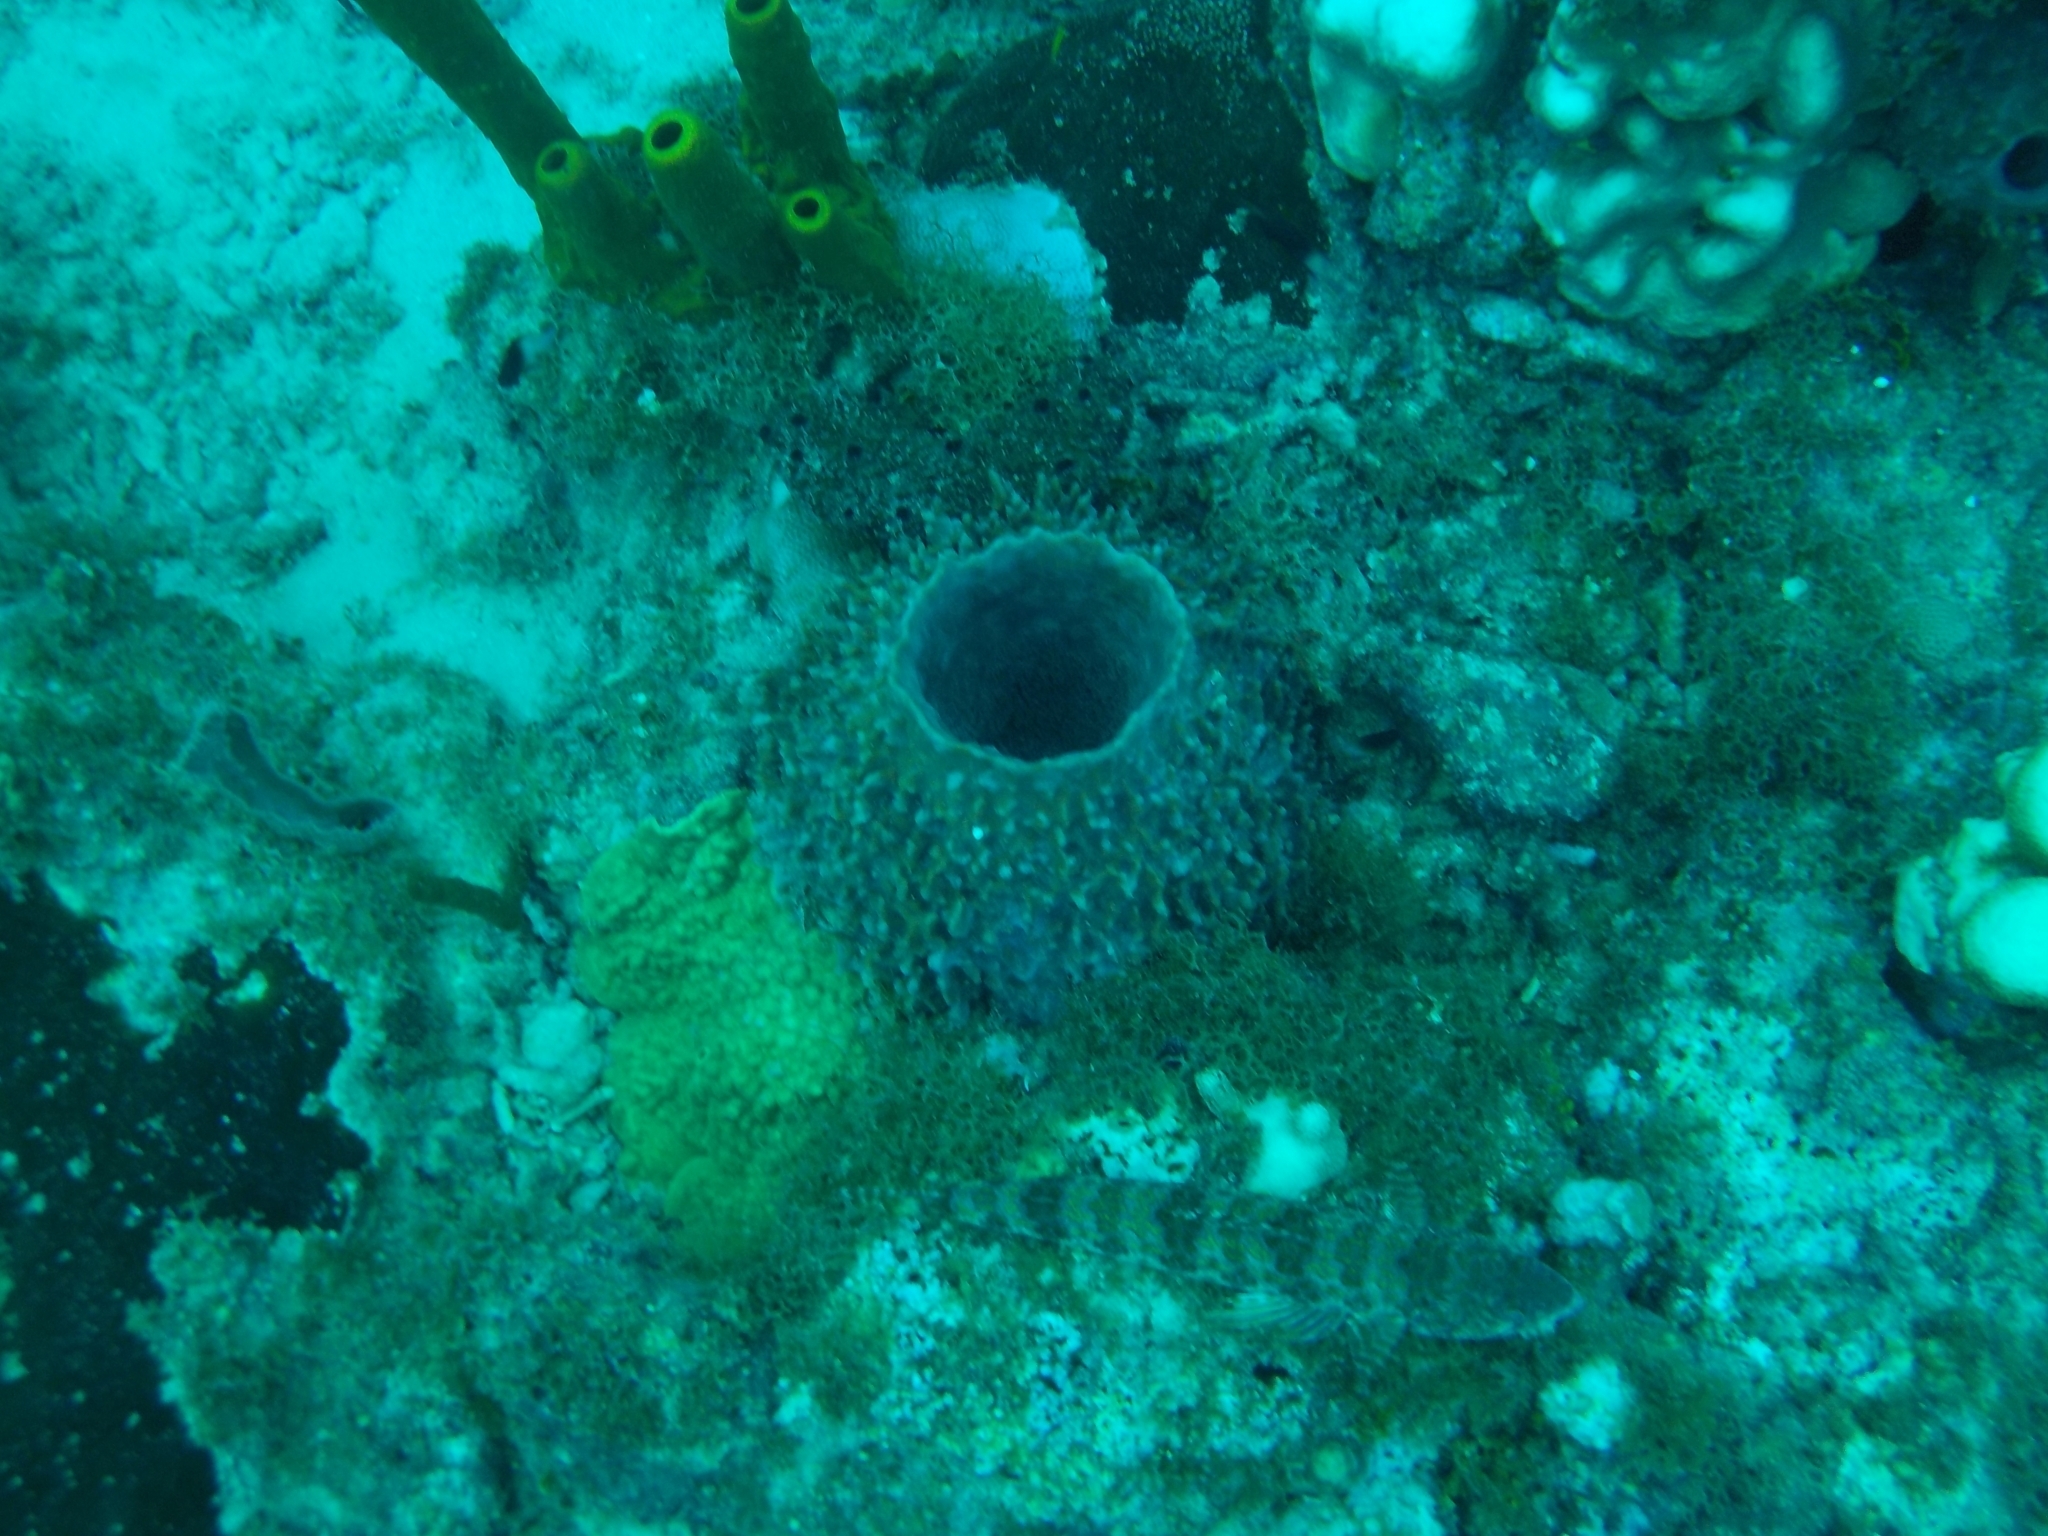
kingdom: Animalia
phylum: Porifera
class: Demospongiae
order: Haplosclerida
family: Petrosiidae
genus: Xestospongia
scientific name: Xestospongia muta
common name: Giant barrel sponge
